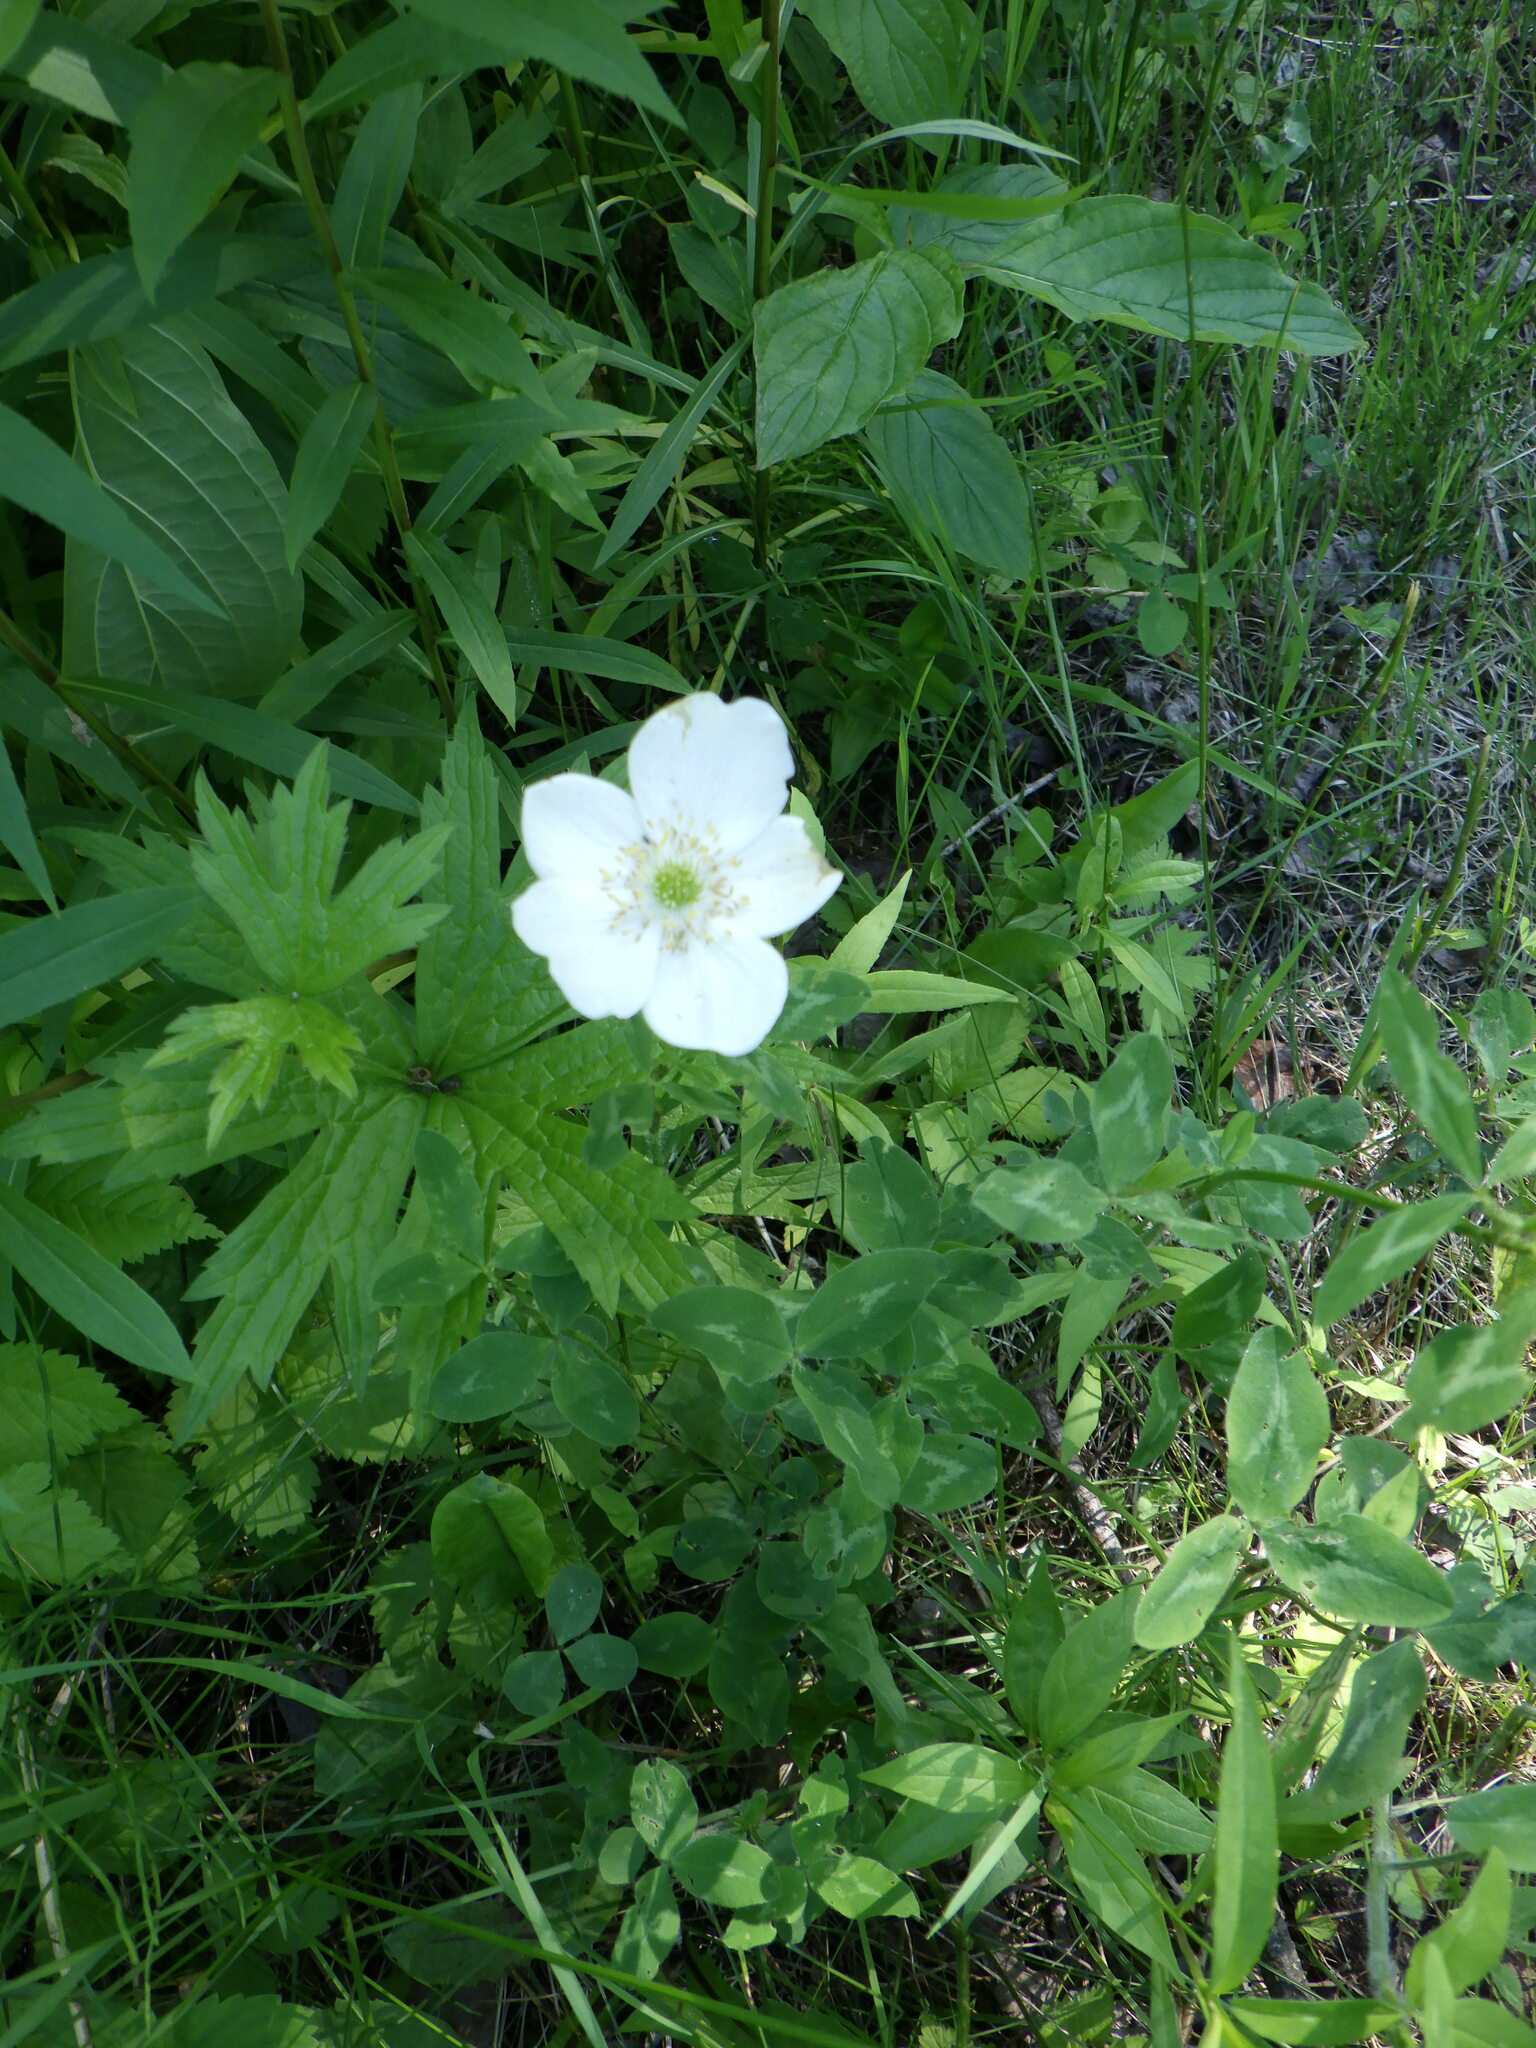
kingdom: Plantae
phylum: Tracheophyta
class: Magnoliopsida
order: Ranunculales
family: Ranunculaceae
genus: Anemonastrum
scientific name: Anemonastrum canadense
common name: Canada anemone
